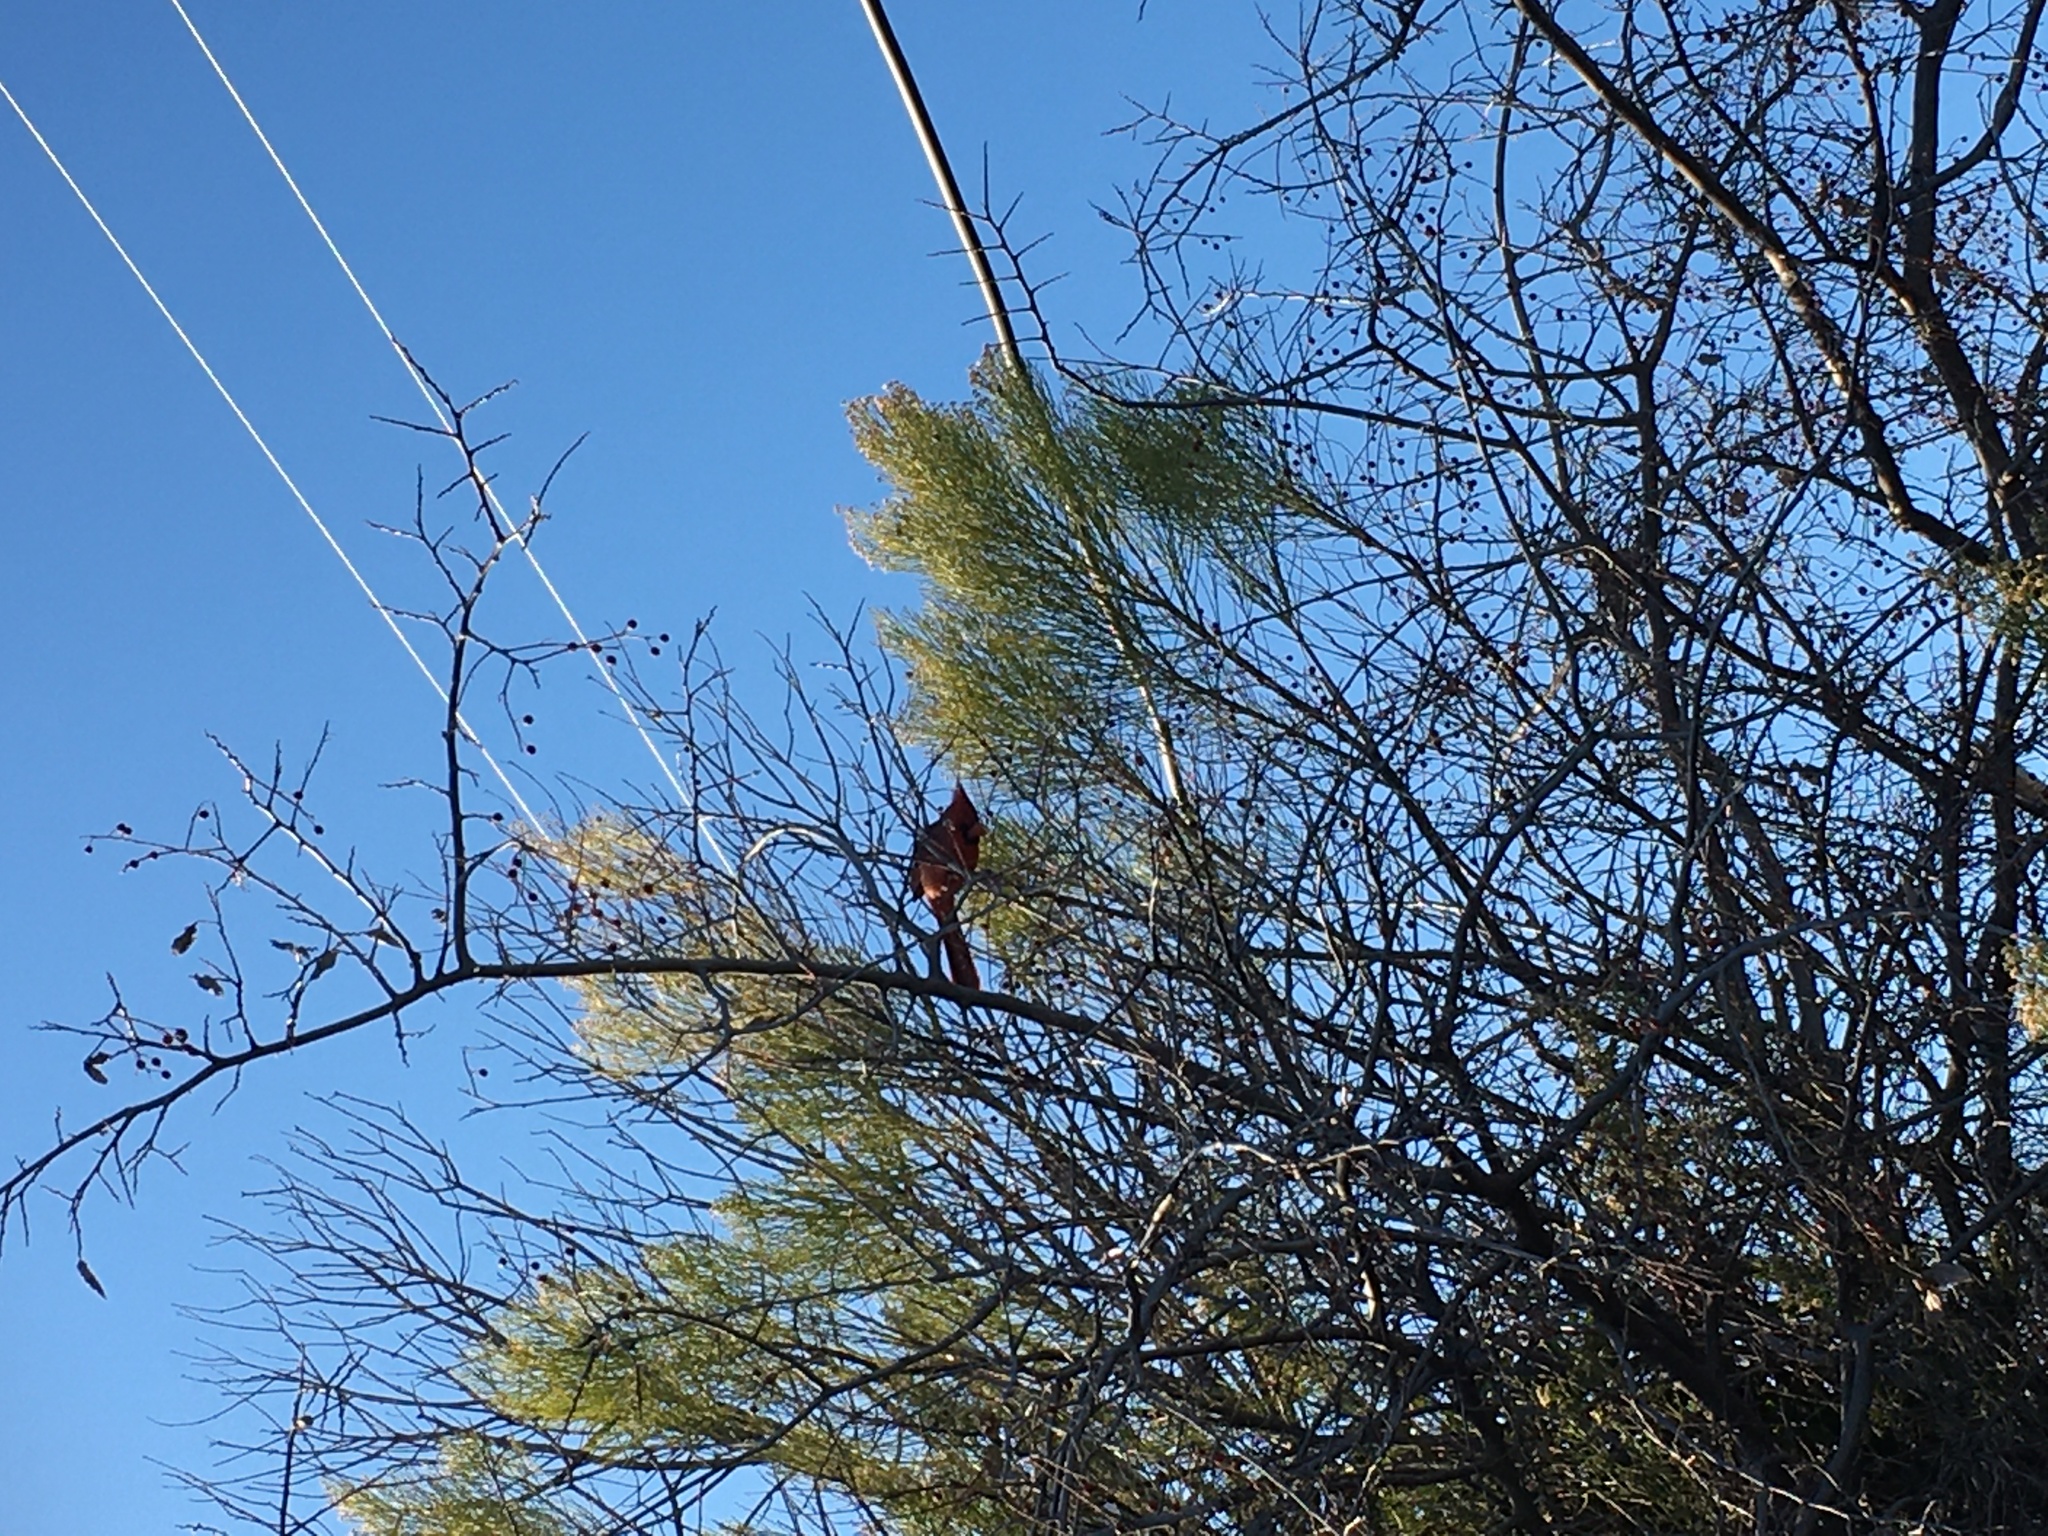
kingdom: Animalia
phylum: Chordata
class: Aves
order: Passeriformes
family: Cardinalidae
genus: Cardinalis
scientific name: Cardinalis cardinalis
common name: Northern cardinal
